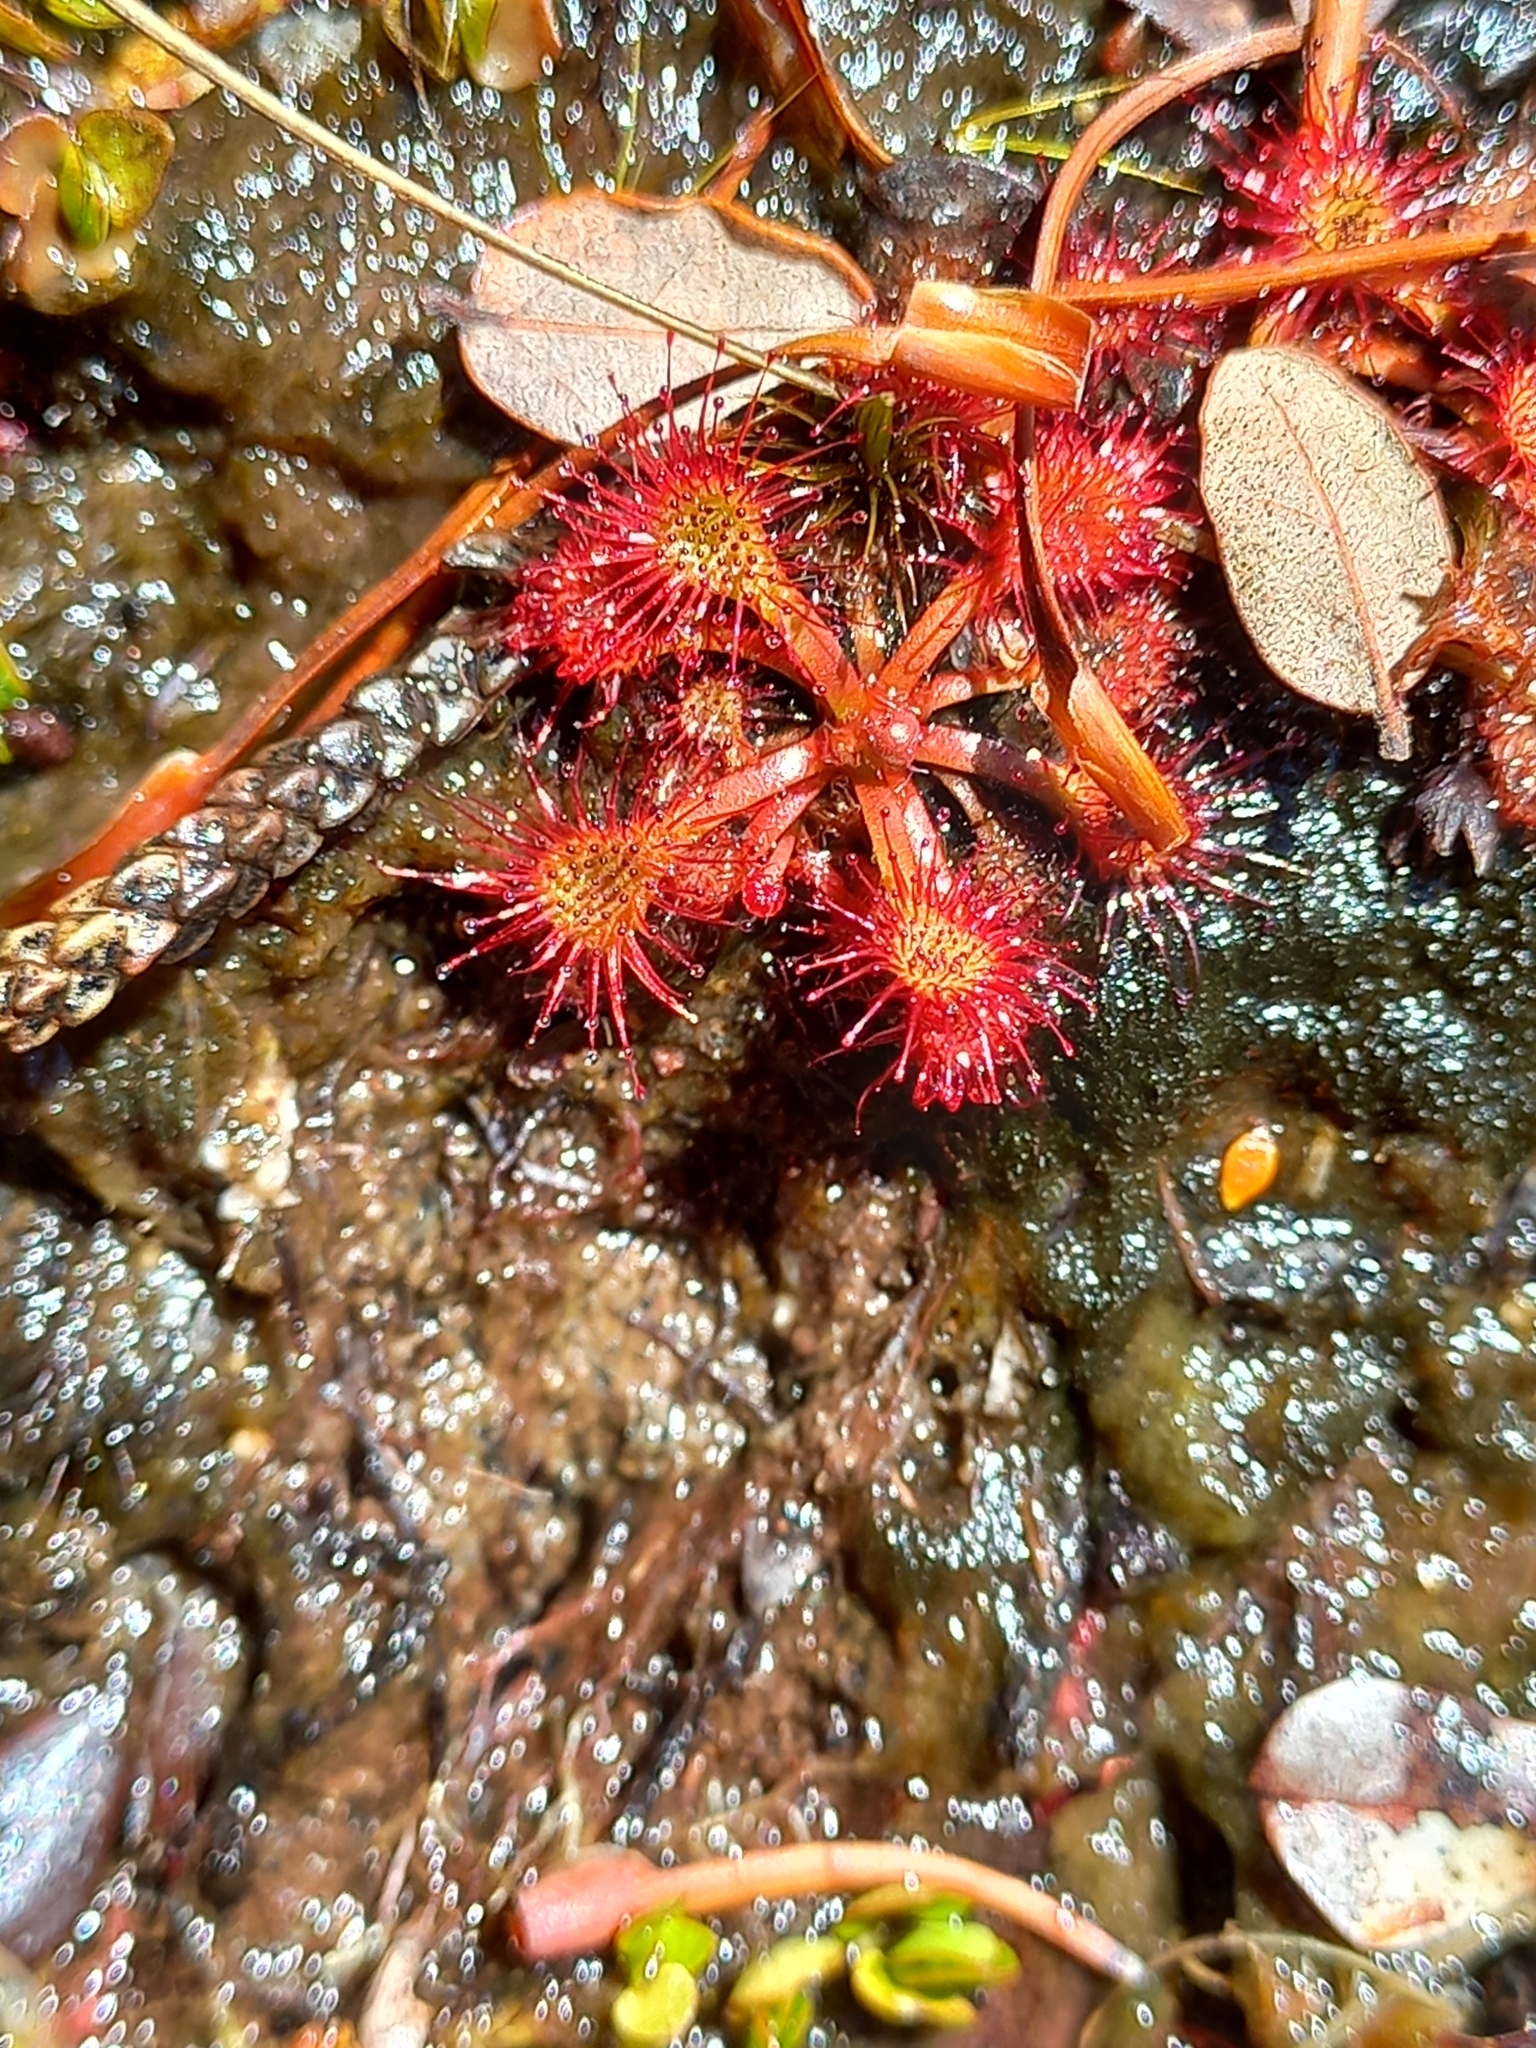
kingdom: Plantae
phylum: Tracheophyta
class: Magnoliopsida
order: Caryophyllales
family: Droseraceae
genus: Drosera
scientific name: Drosera spatulata
